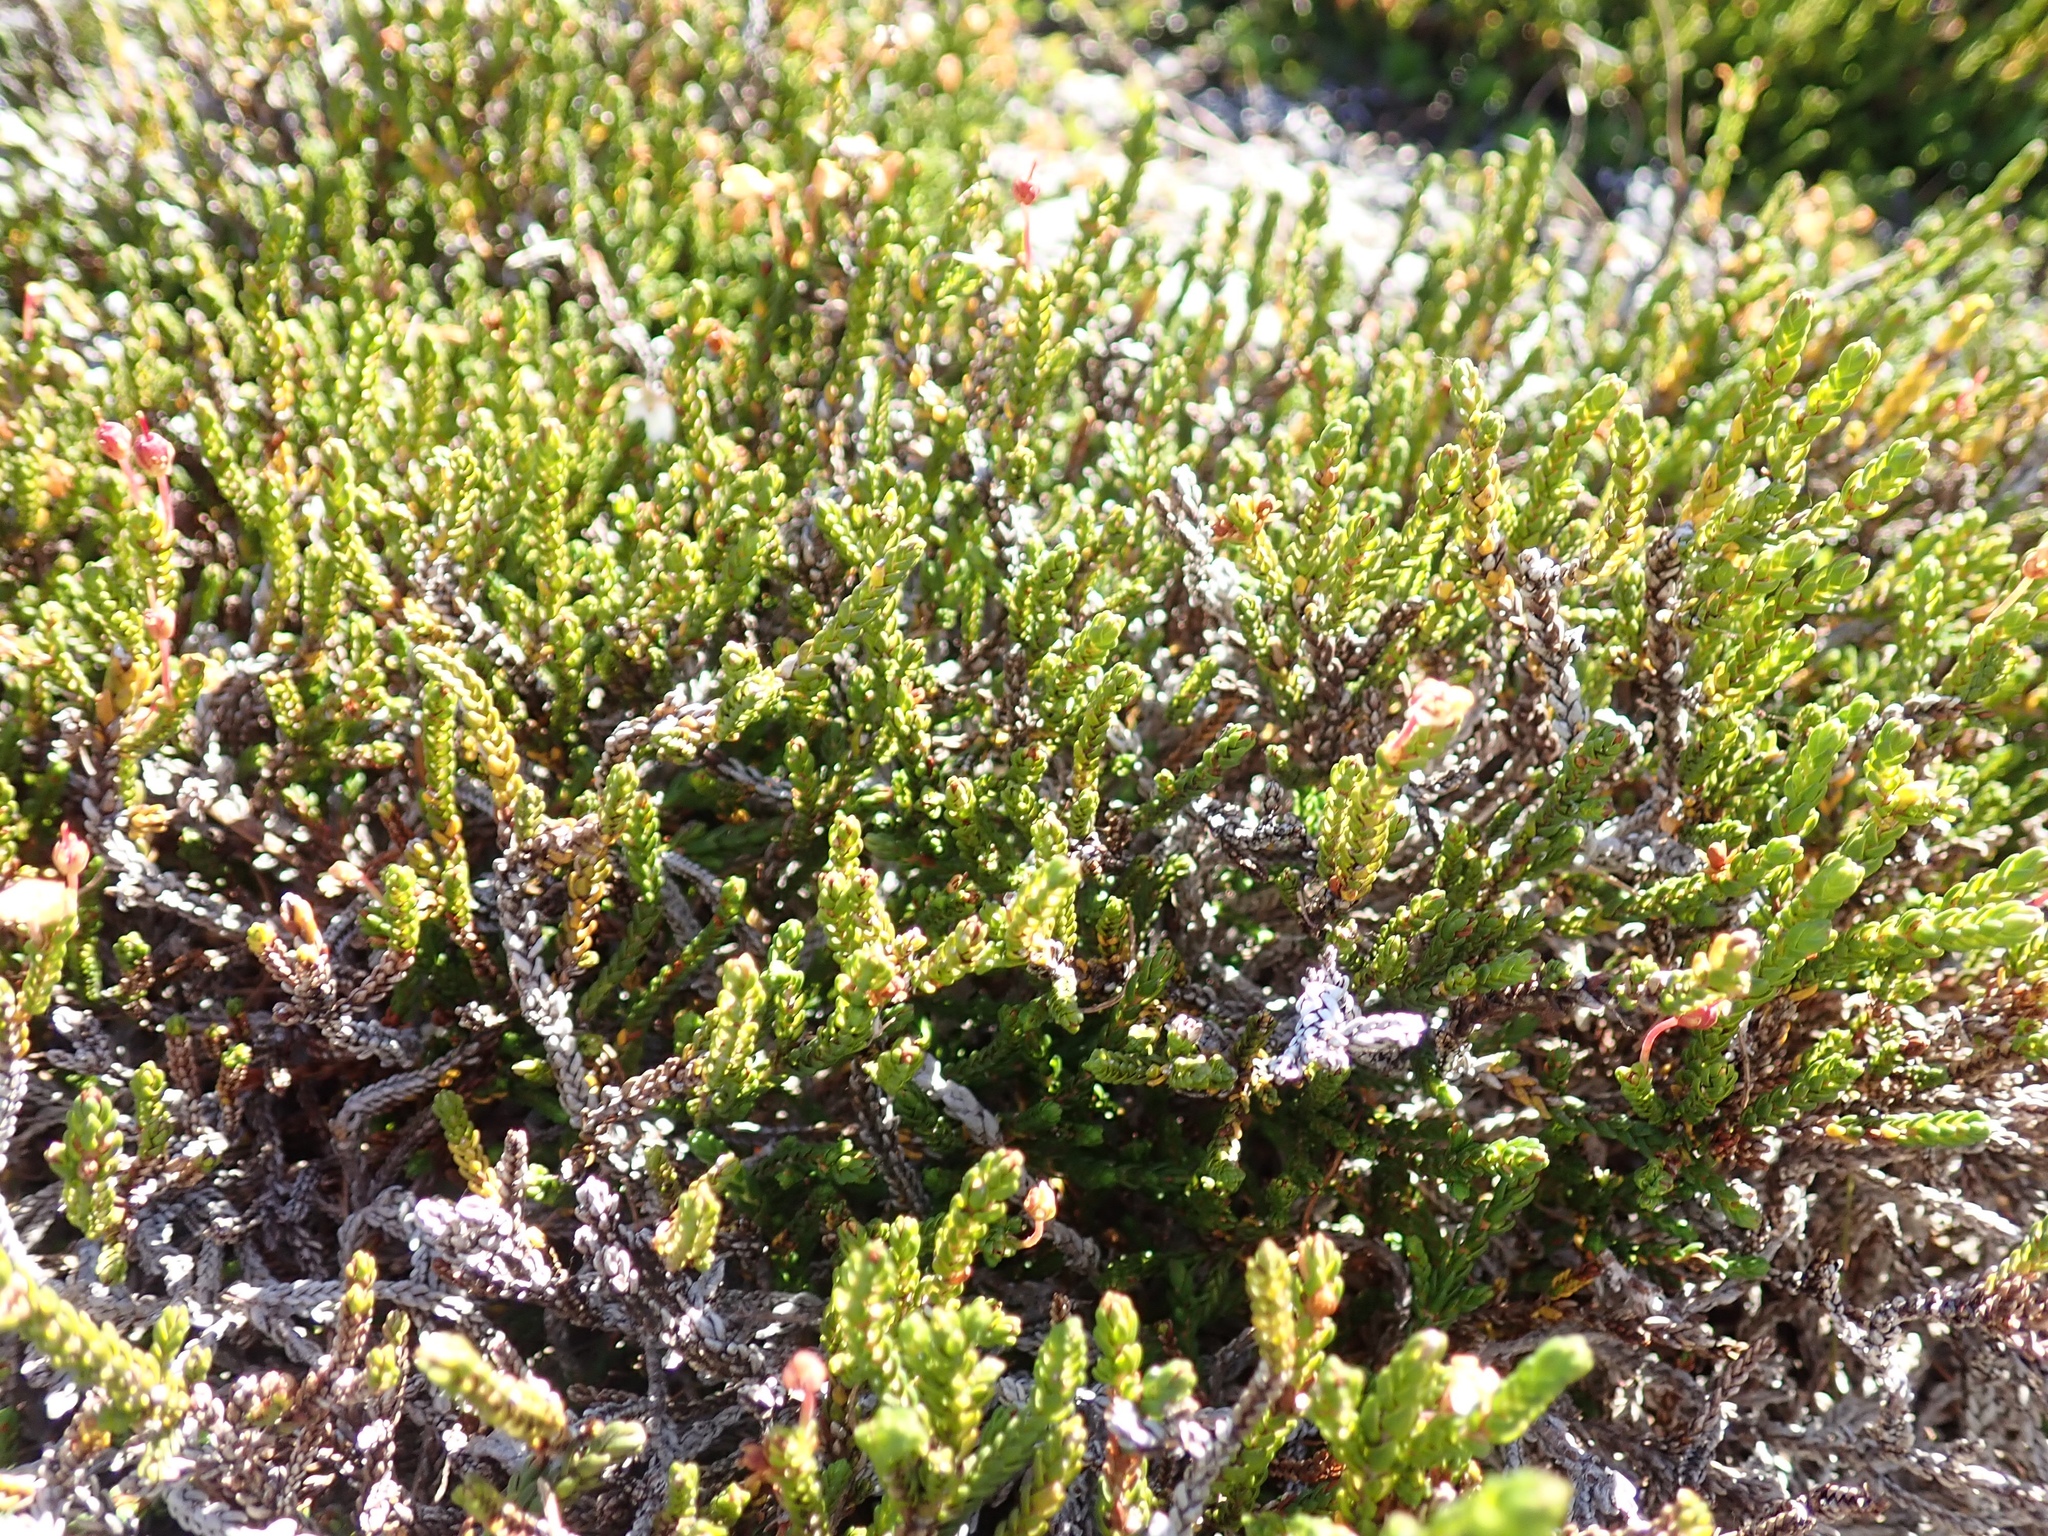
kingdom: Plantae
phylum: Tracheophyta
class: Magnoliopsida
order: Ericales
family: Ericaceae
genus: Cassiope
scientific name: Cassiope mertensiana
